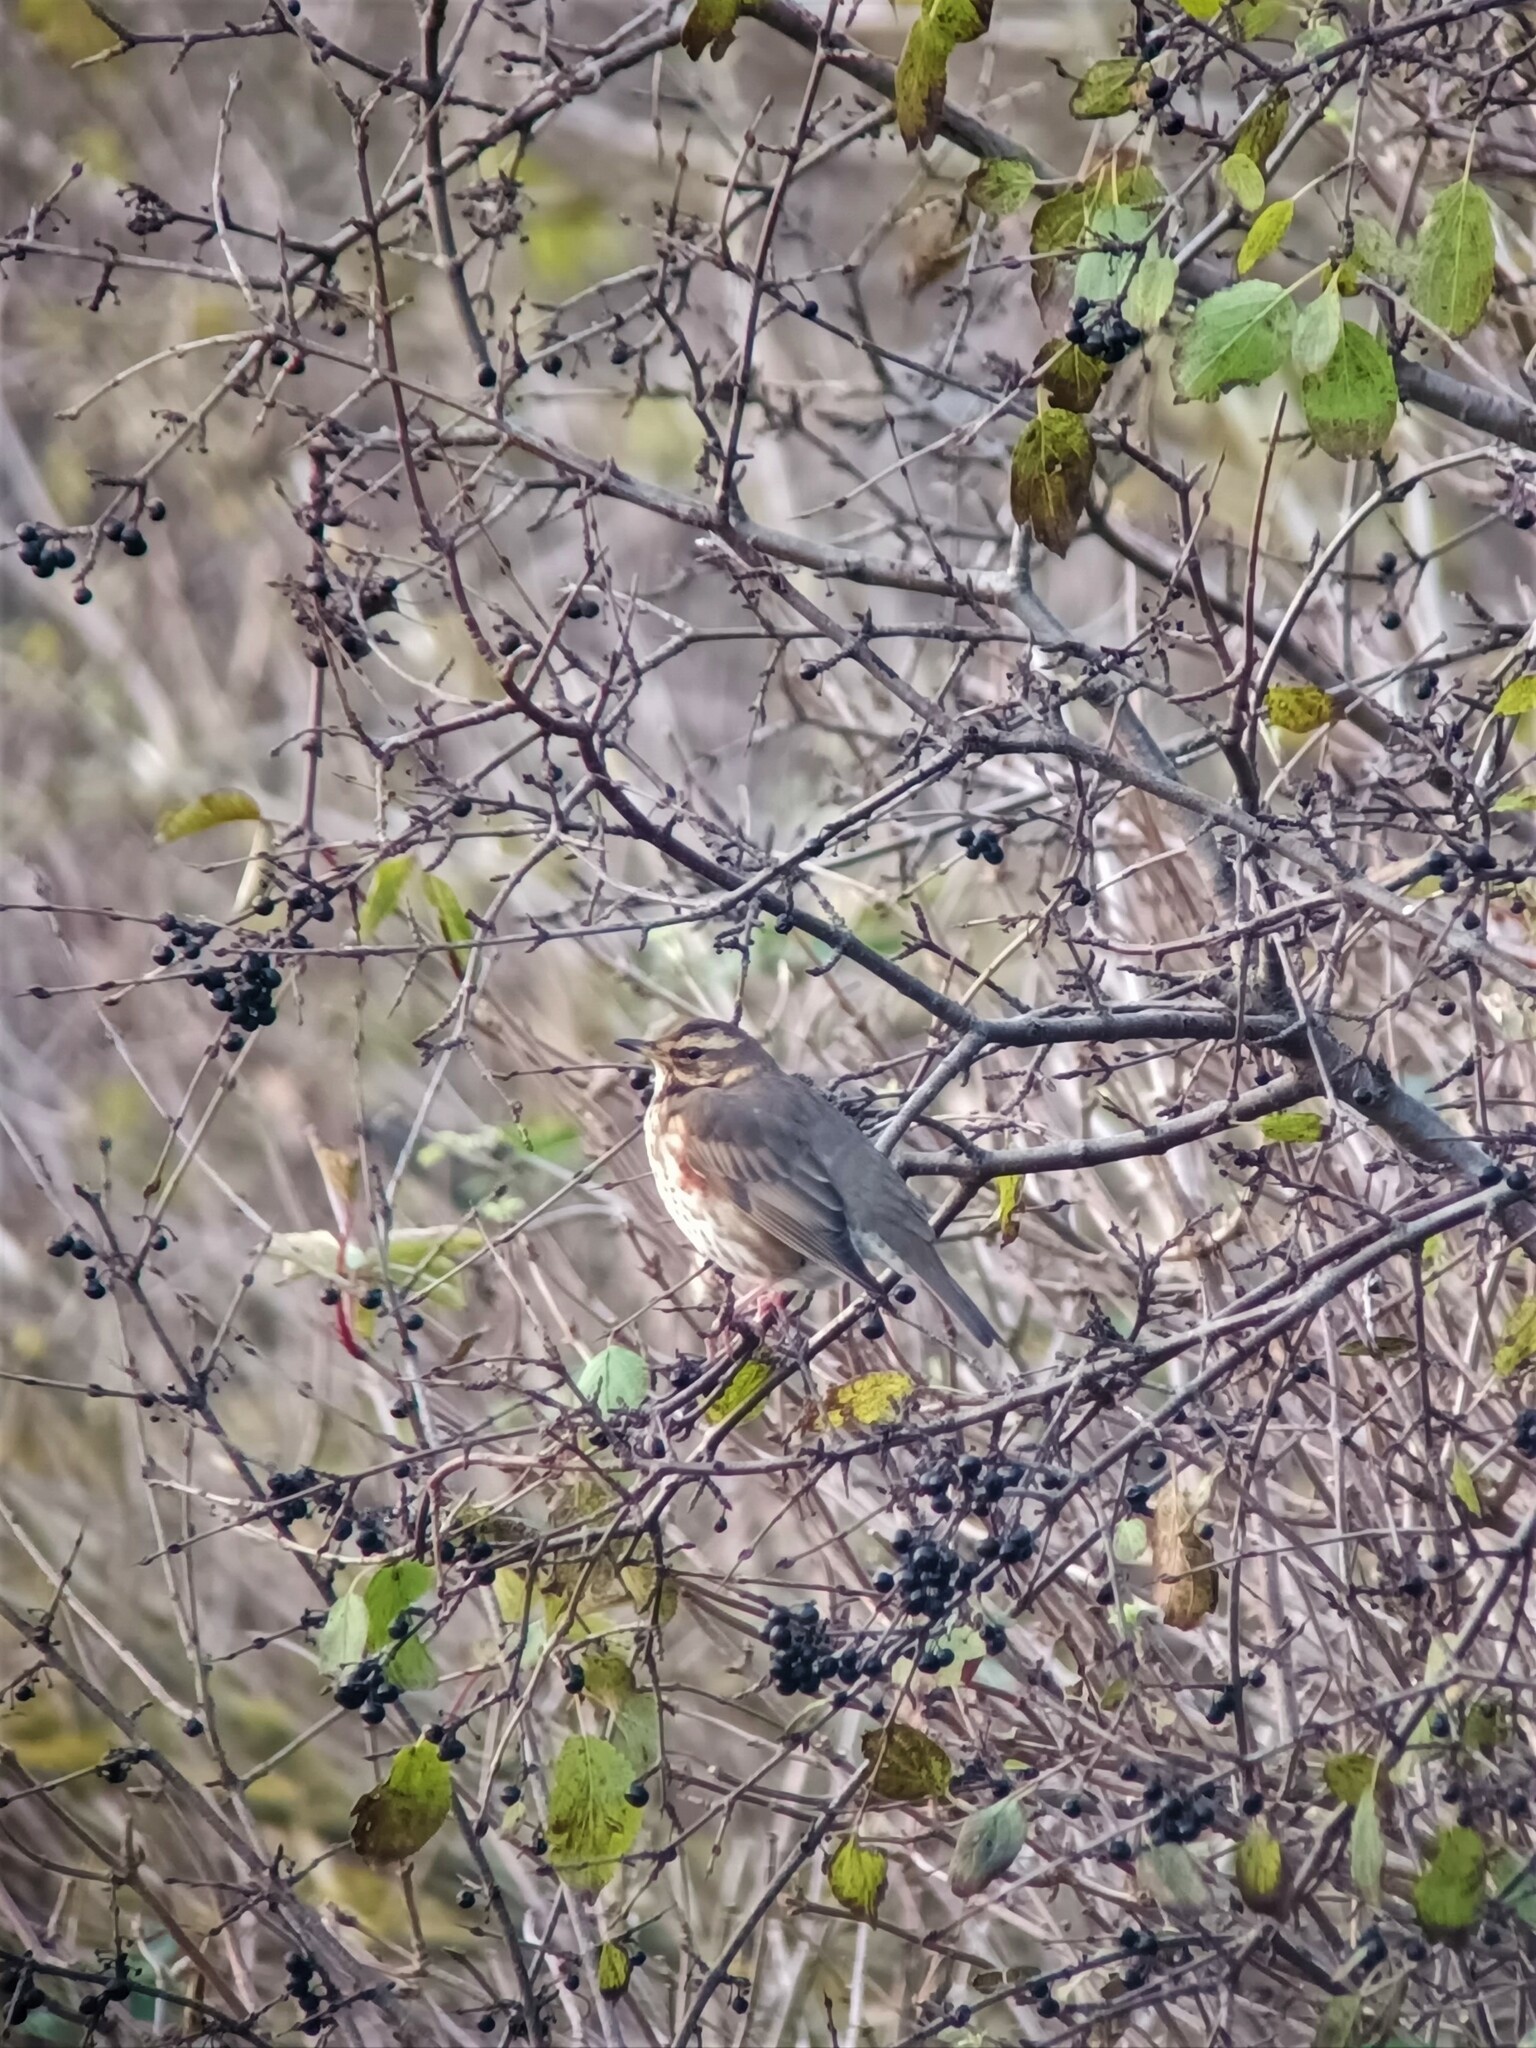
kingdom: Animalia
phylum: Chordata
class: Aves
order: Passeriformes
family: Turdidae
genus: Turdus
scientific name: Turdus iliacus
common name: Redwing
